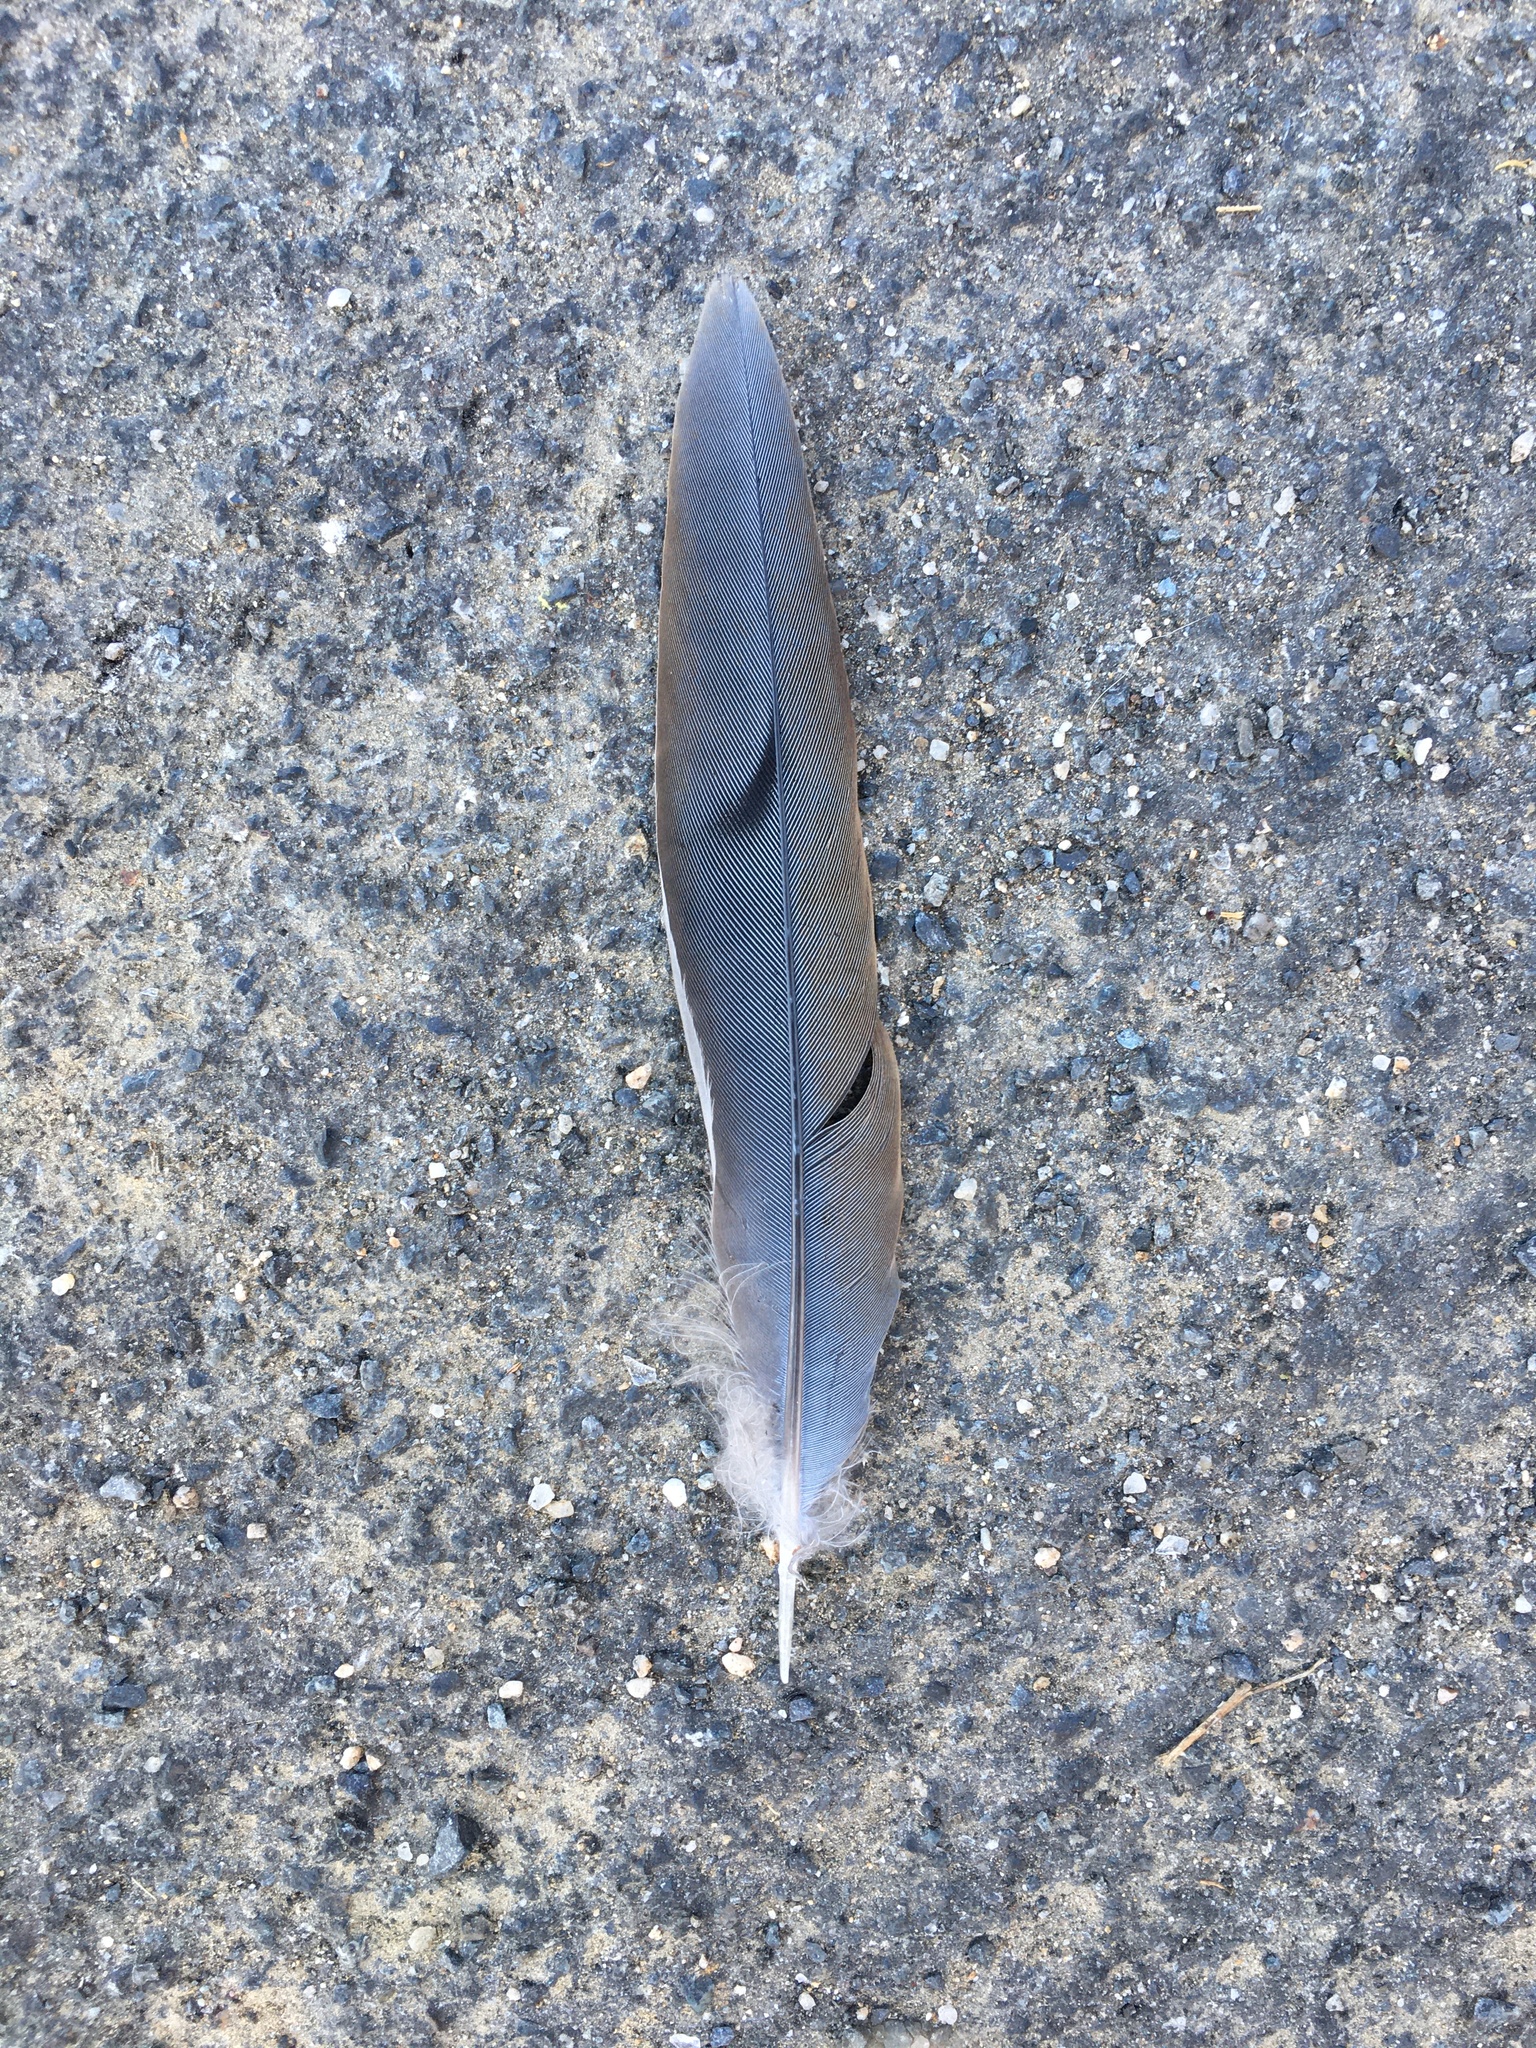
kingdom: Animalia
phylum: Chordata
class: Aves
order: Columbiformes
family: Columbidae
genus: Zenaida
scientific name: Zenaida macroura
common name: Mourning dove
